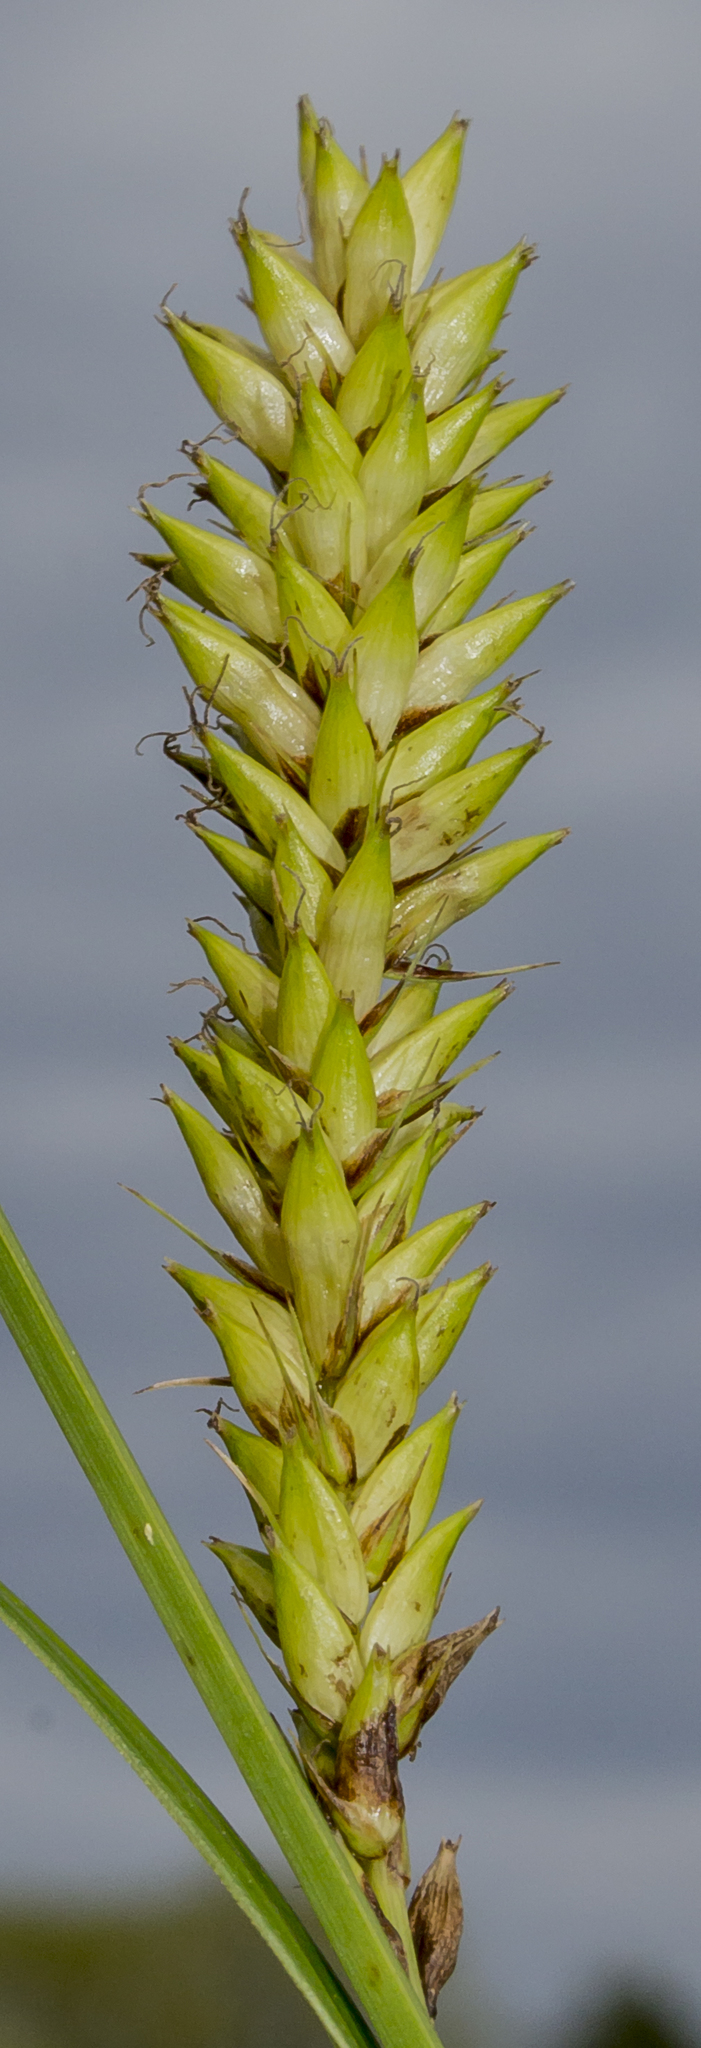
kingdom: Plantae
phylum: Tracheophyta
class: Liliopsida
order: Poales
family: Cyperaceae
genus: Carex
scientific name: Carex lacustris
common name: Common lake sedge
